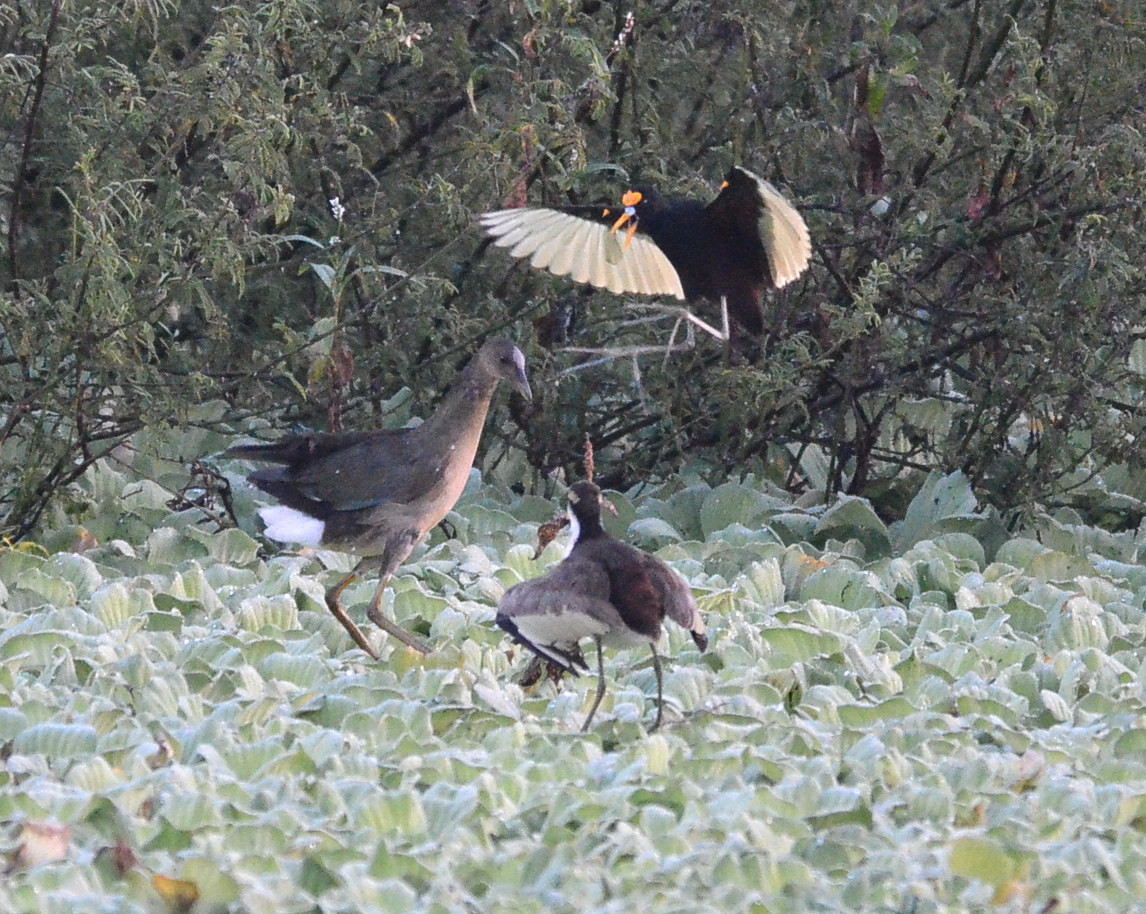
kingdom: Animalia
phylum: Chordata
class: Aves
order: Charadriiformes
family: Jacanidae
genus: Jacana
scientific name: Jacana spinosa
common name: Northern jacana
